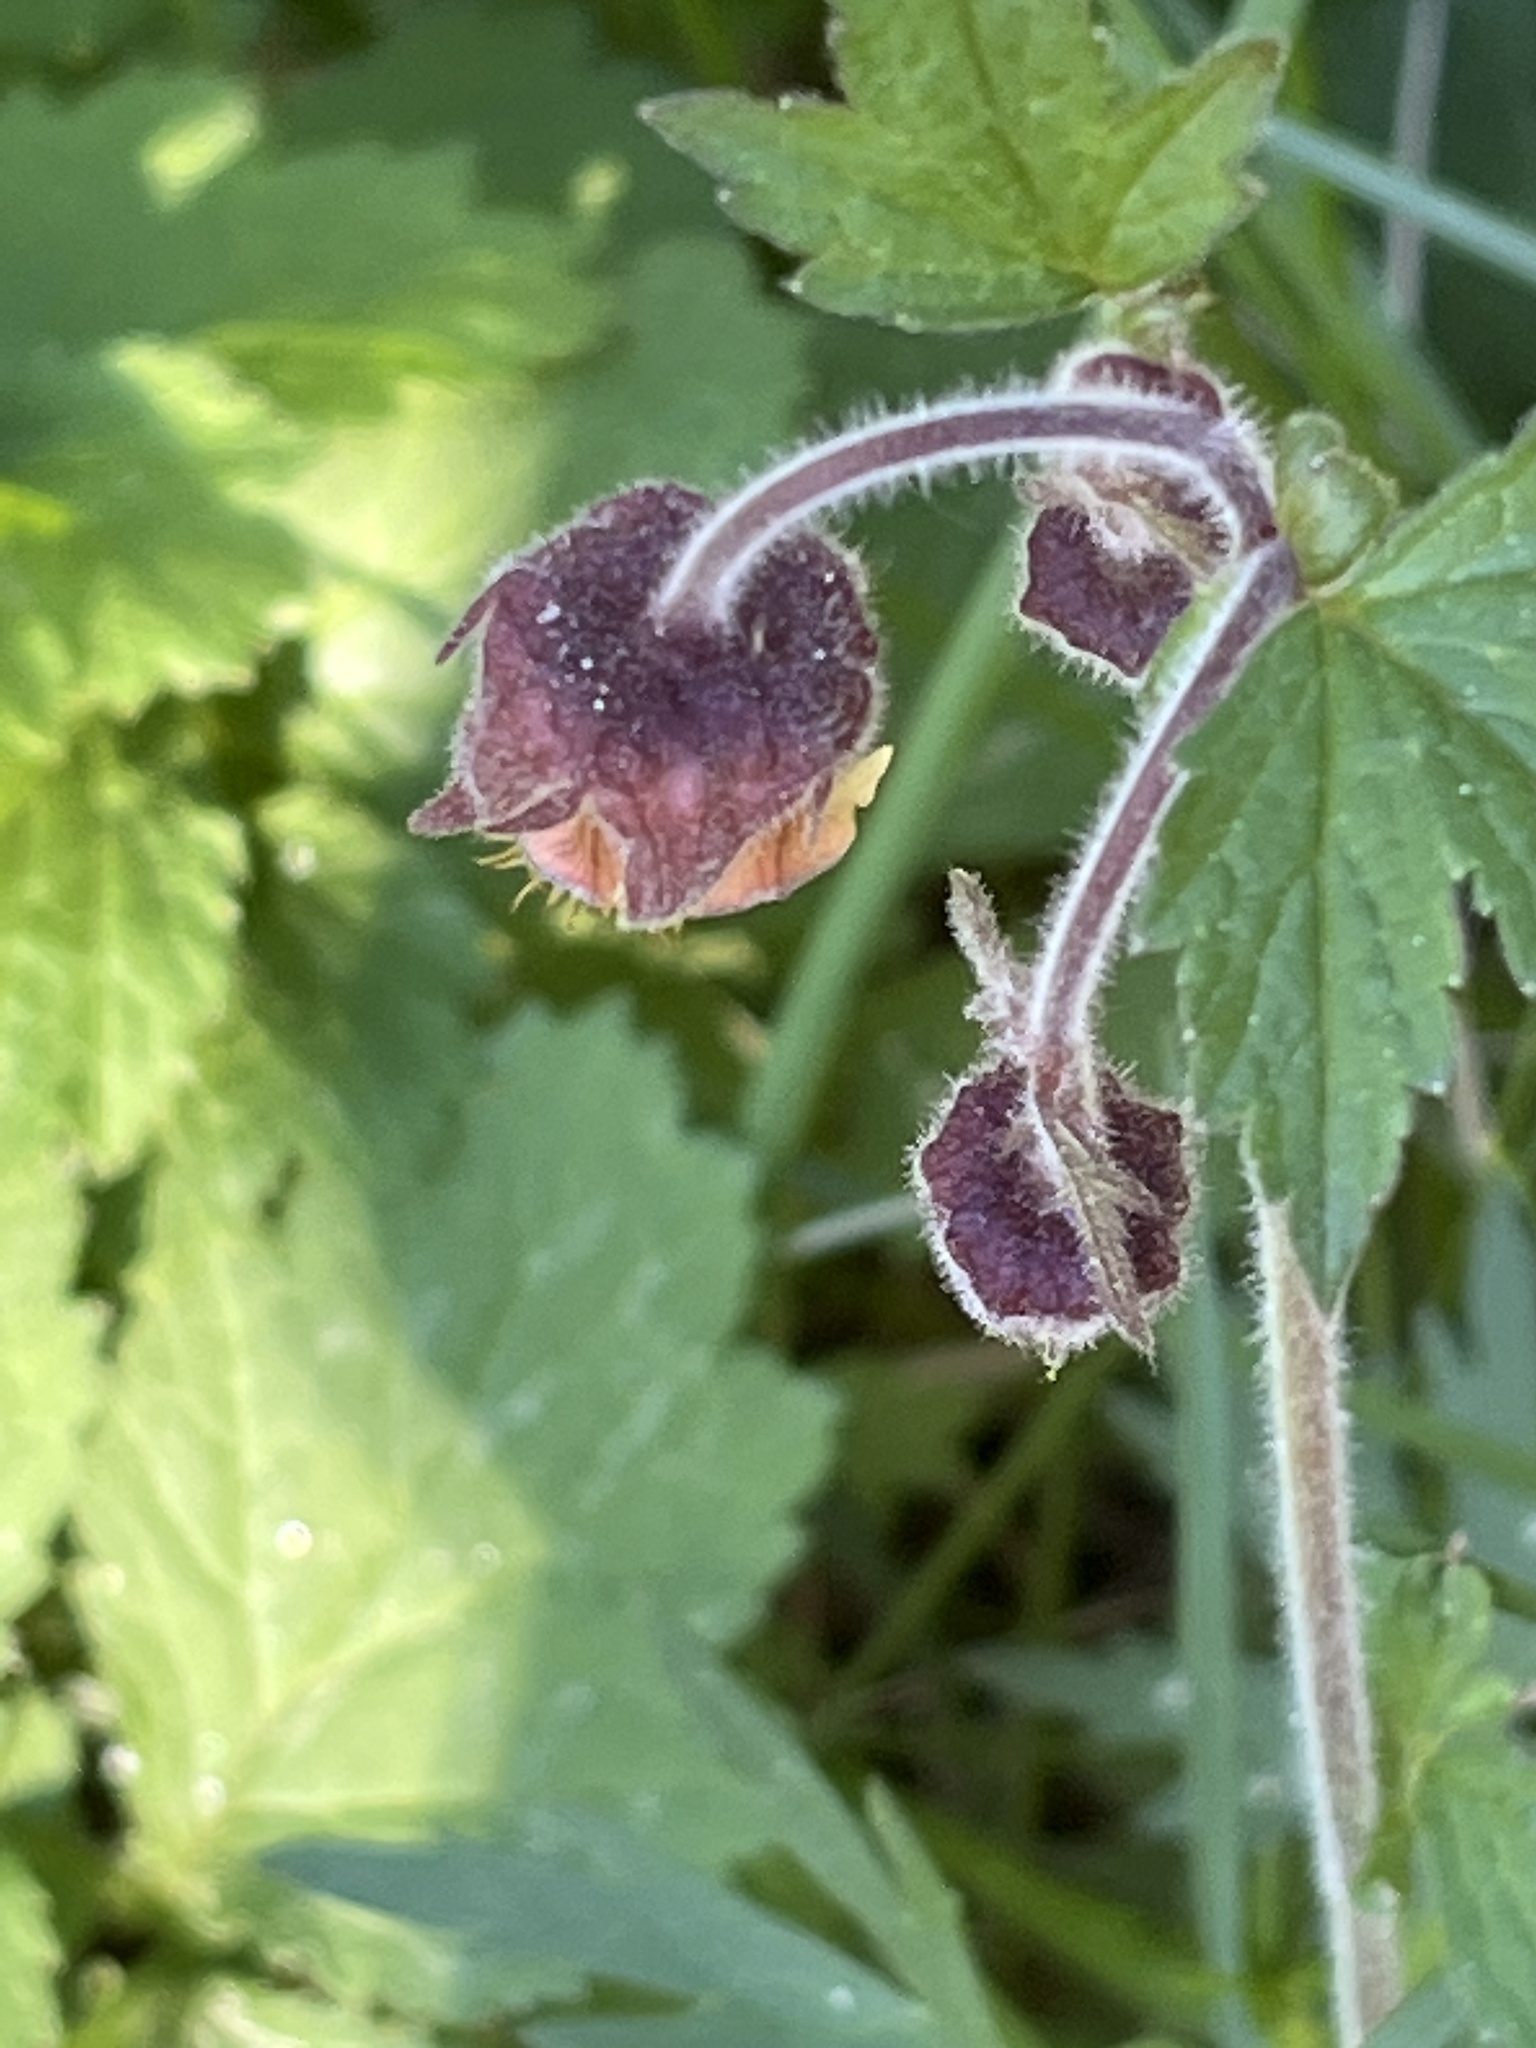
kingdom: Plantae
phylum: Tracheophyta
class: Magnoliopsida
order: Rosales
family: Rosaceae
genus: Geum
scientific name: Geum rivale
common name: Water avens
